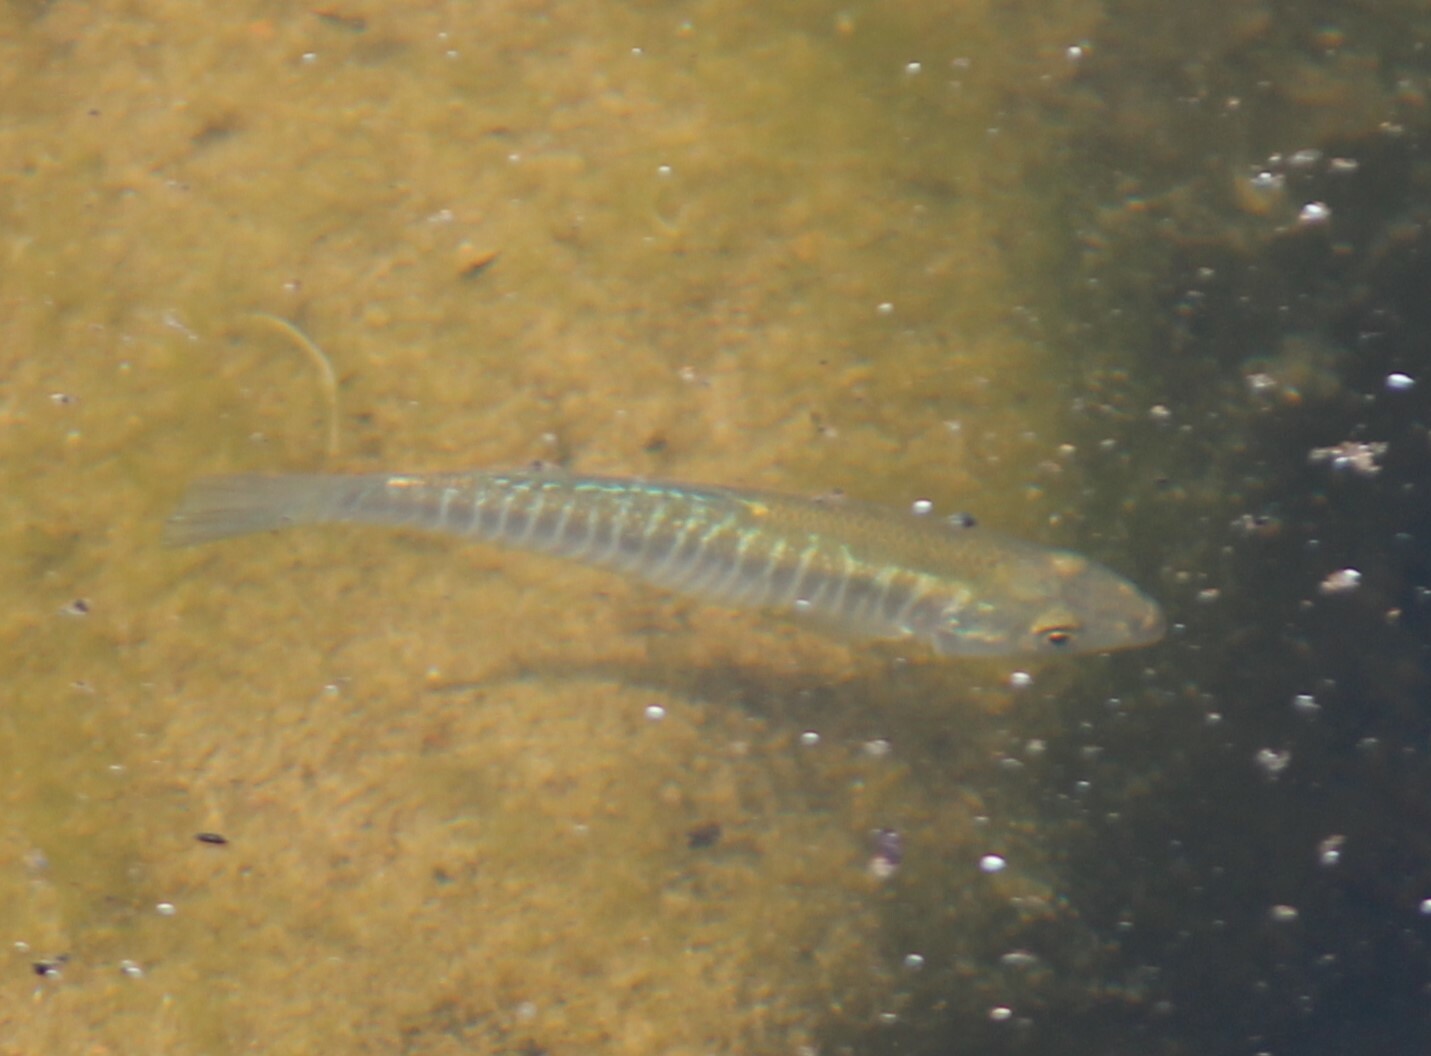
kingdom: Animalia
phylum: Chordata
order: Cyprinodontiformes
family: Fundulidae
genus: Fundulus
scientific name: Fundulus diaphanus
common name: Banded killifish
